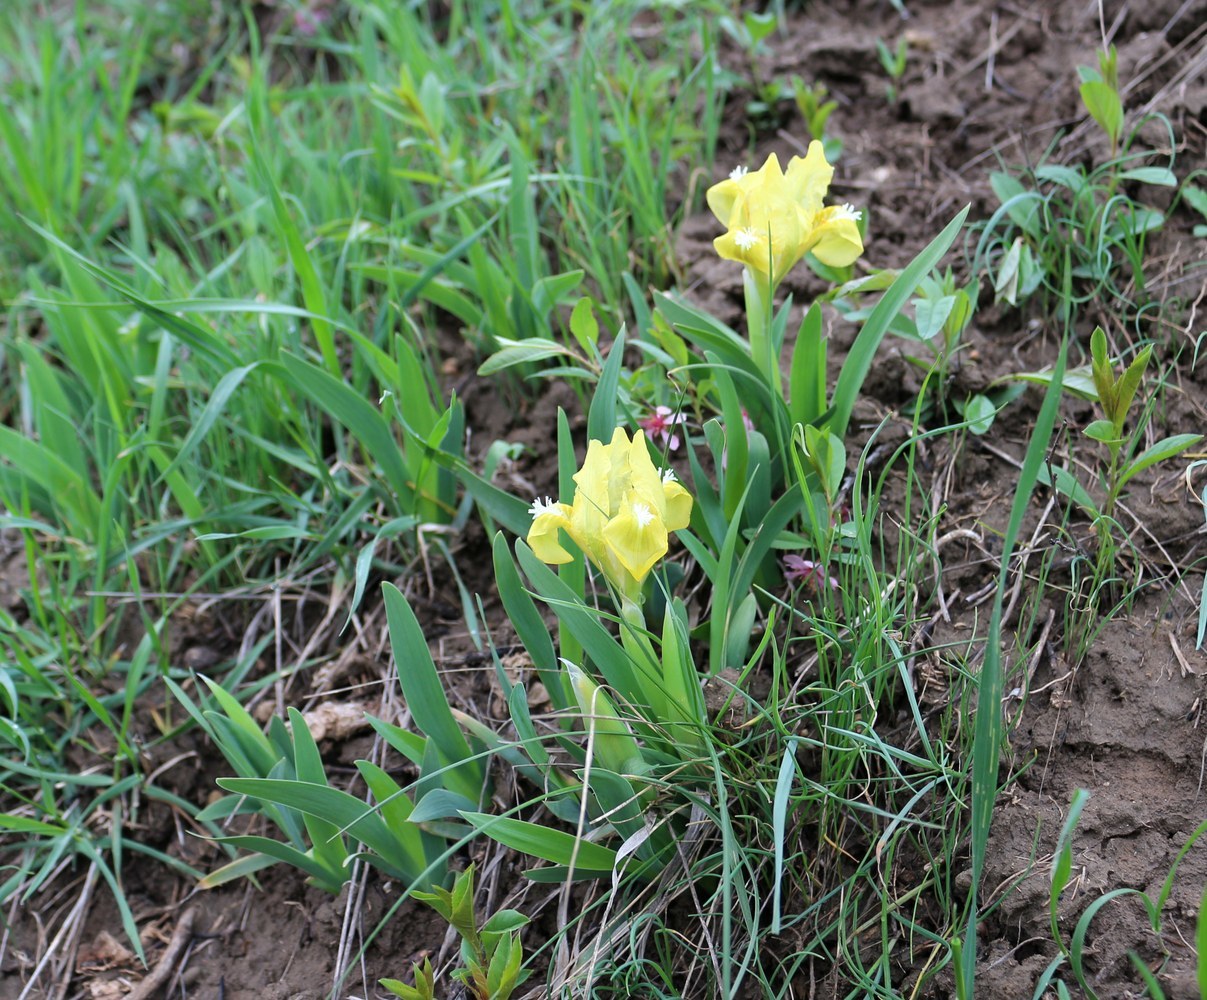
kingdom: Plantae
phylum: Tracheophyta
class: Liliopsida
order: Asparagales
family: Iridaceae
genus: Iris
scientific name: Iris pumila
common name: Dwarf iris
